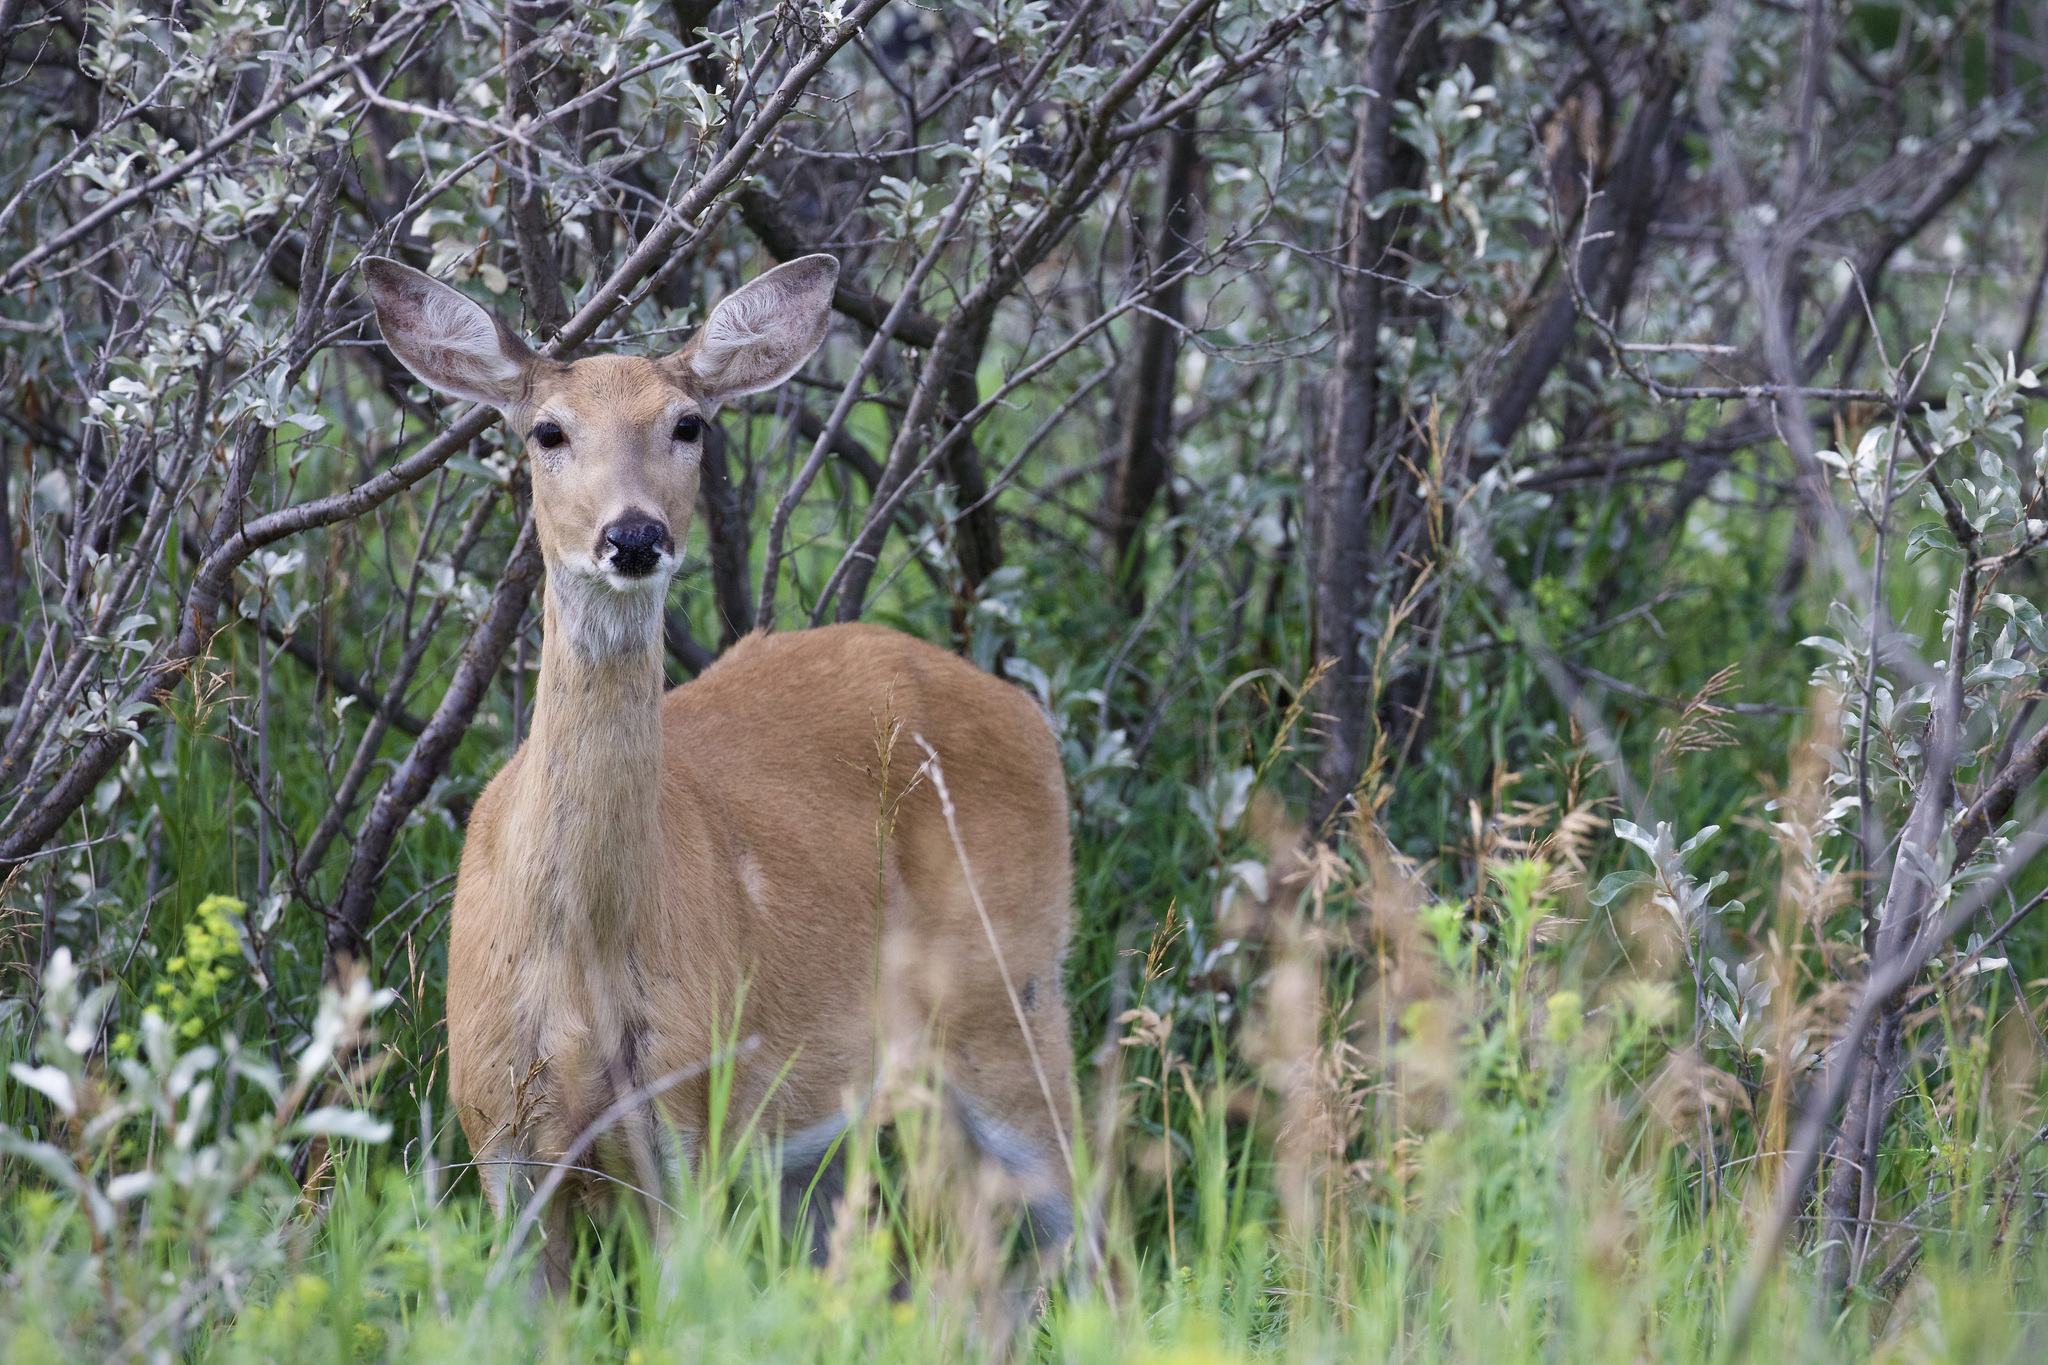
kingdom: Animalia
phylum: Chordata
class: Mammalia
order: Artiodactyla
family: Cervidae
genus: Odocoileus
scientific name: Odocoileus virginianus
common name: White-tailed deer
